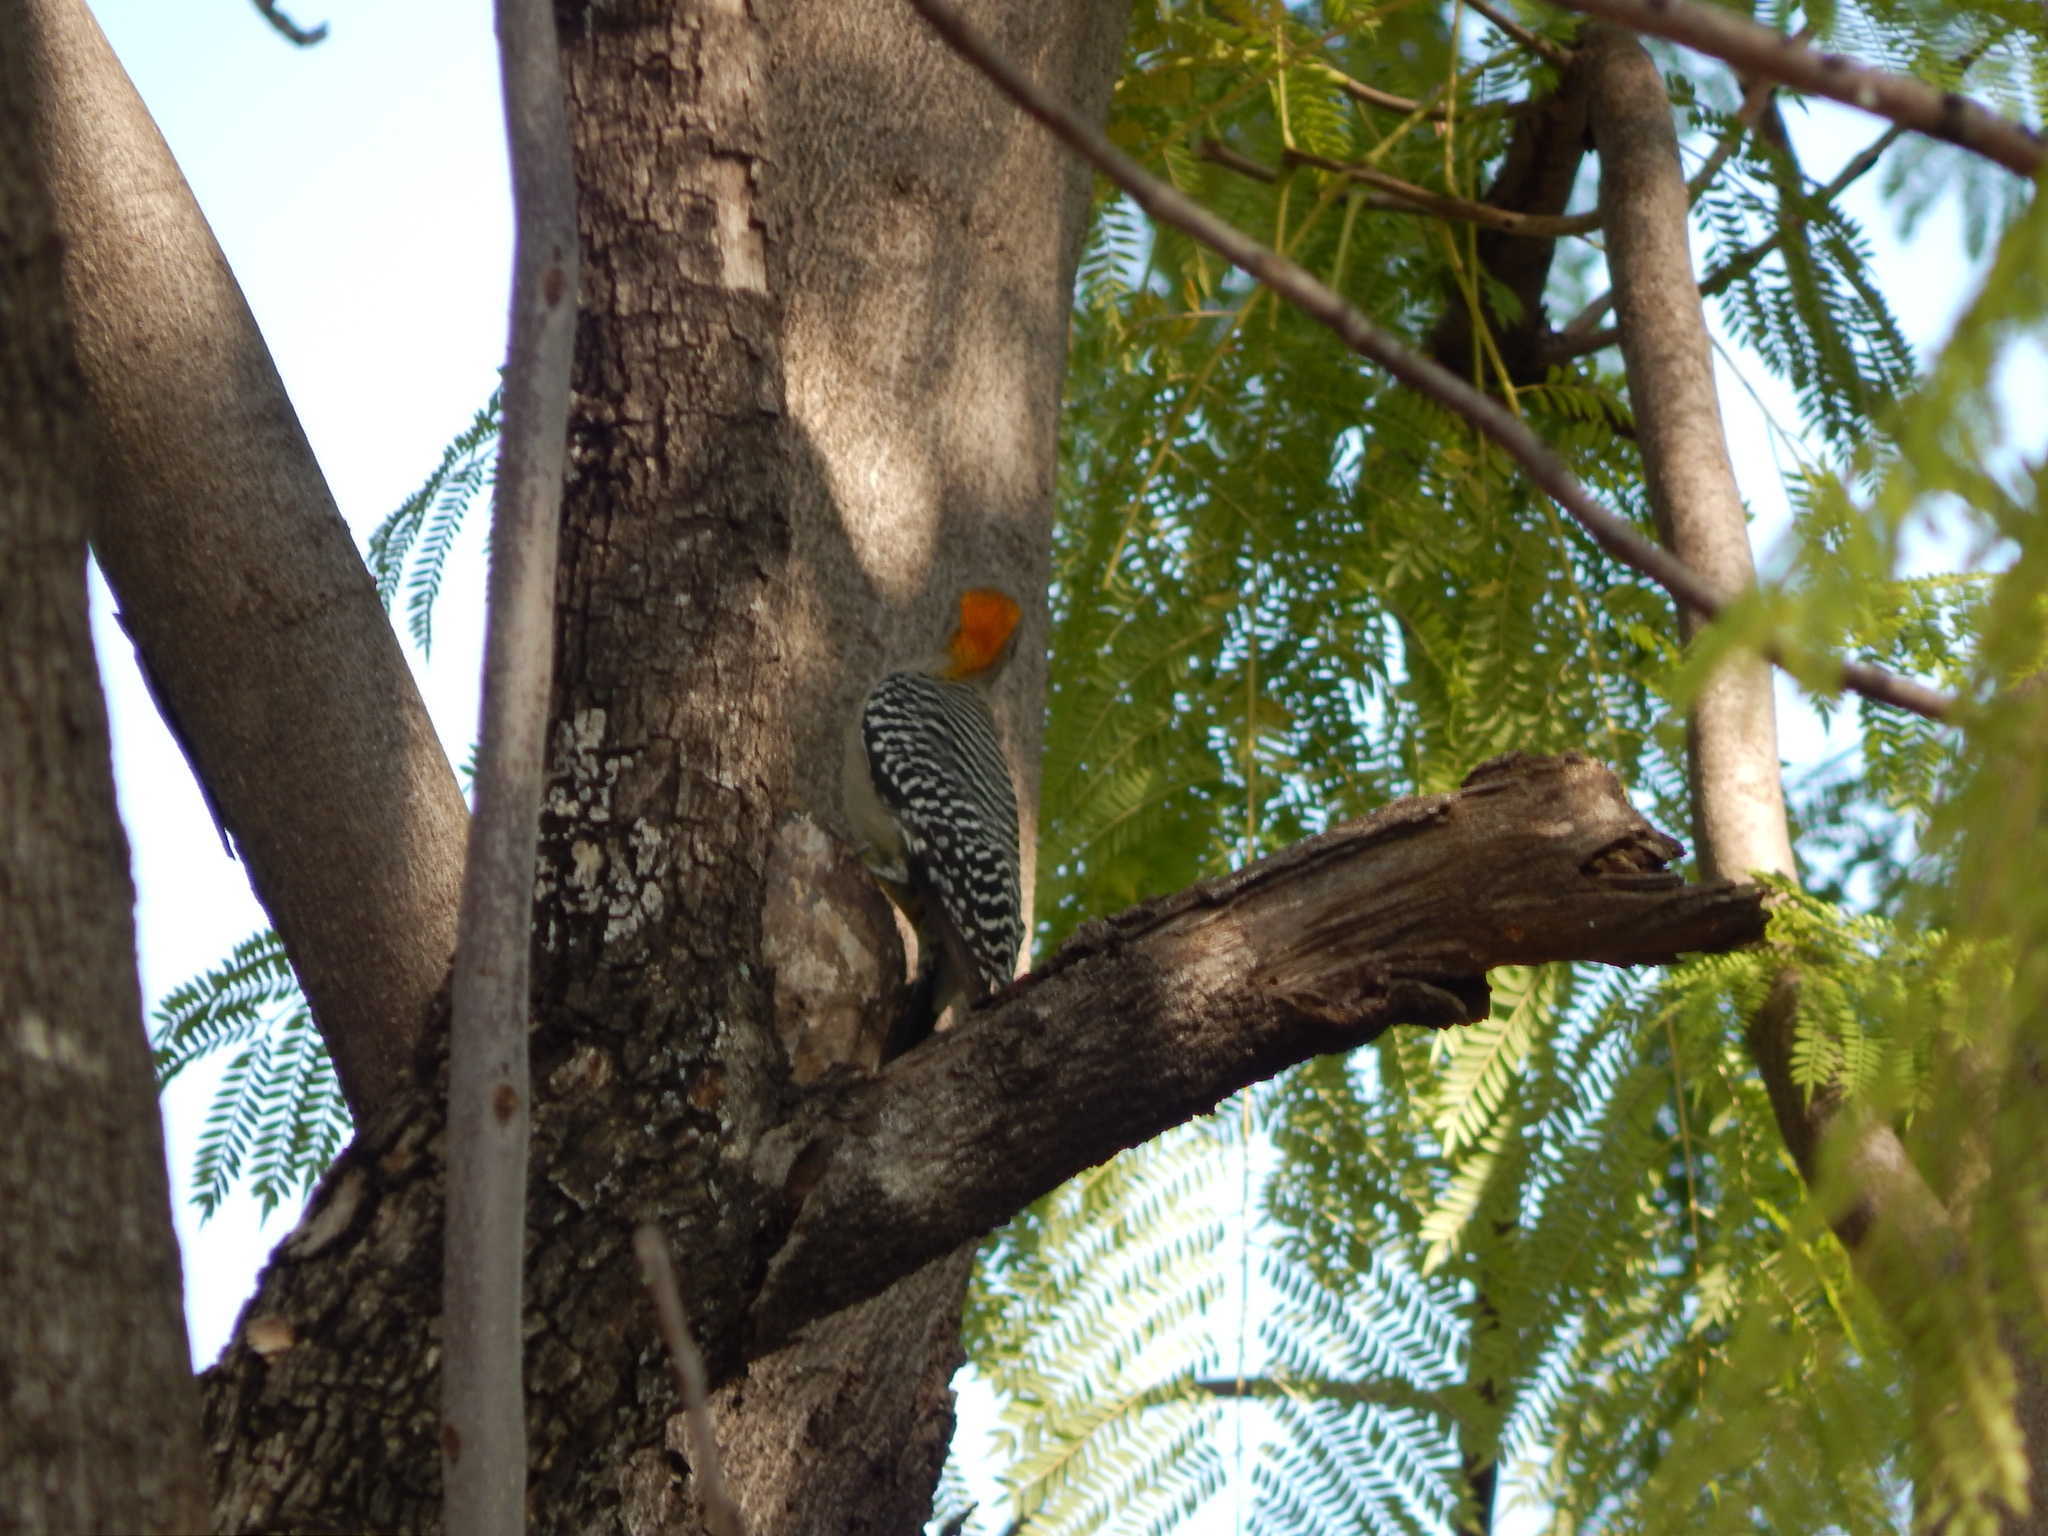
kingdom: Animalia
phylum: Chordata
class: Aves
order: Piciformes
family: Picidae
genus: Melanerpes
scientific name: Melanerpes aurifrons
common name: Golden-fronted woodpecker
